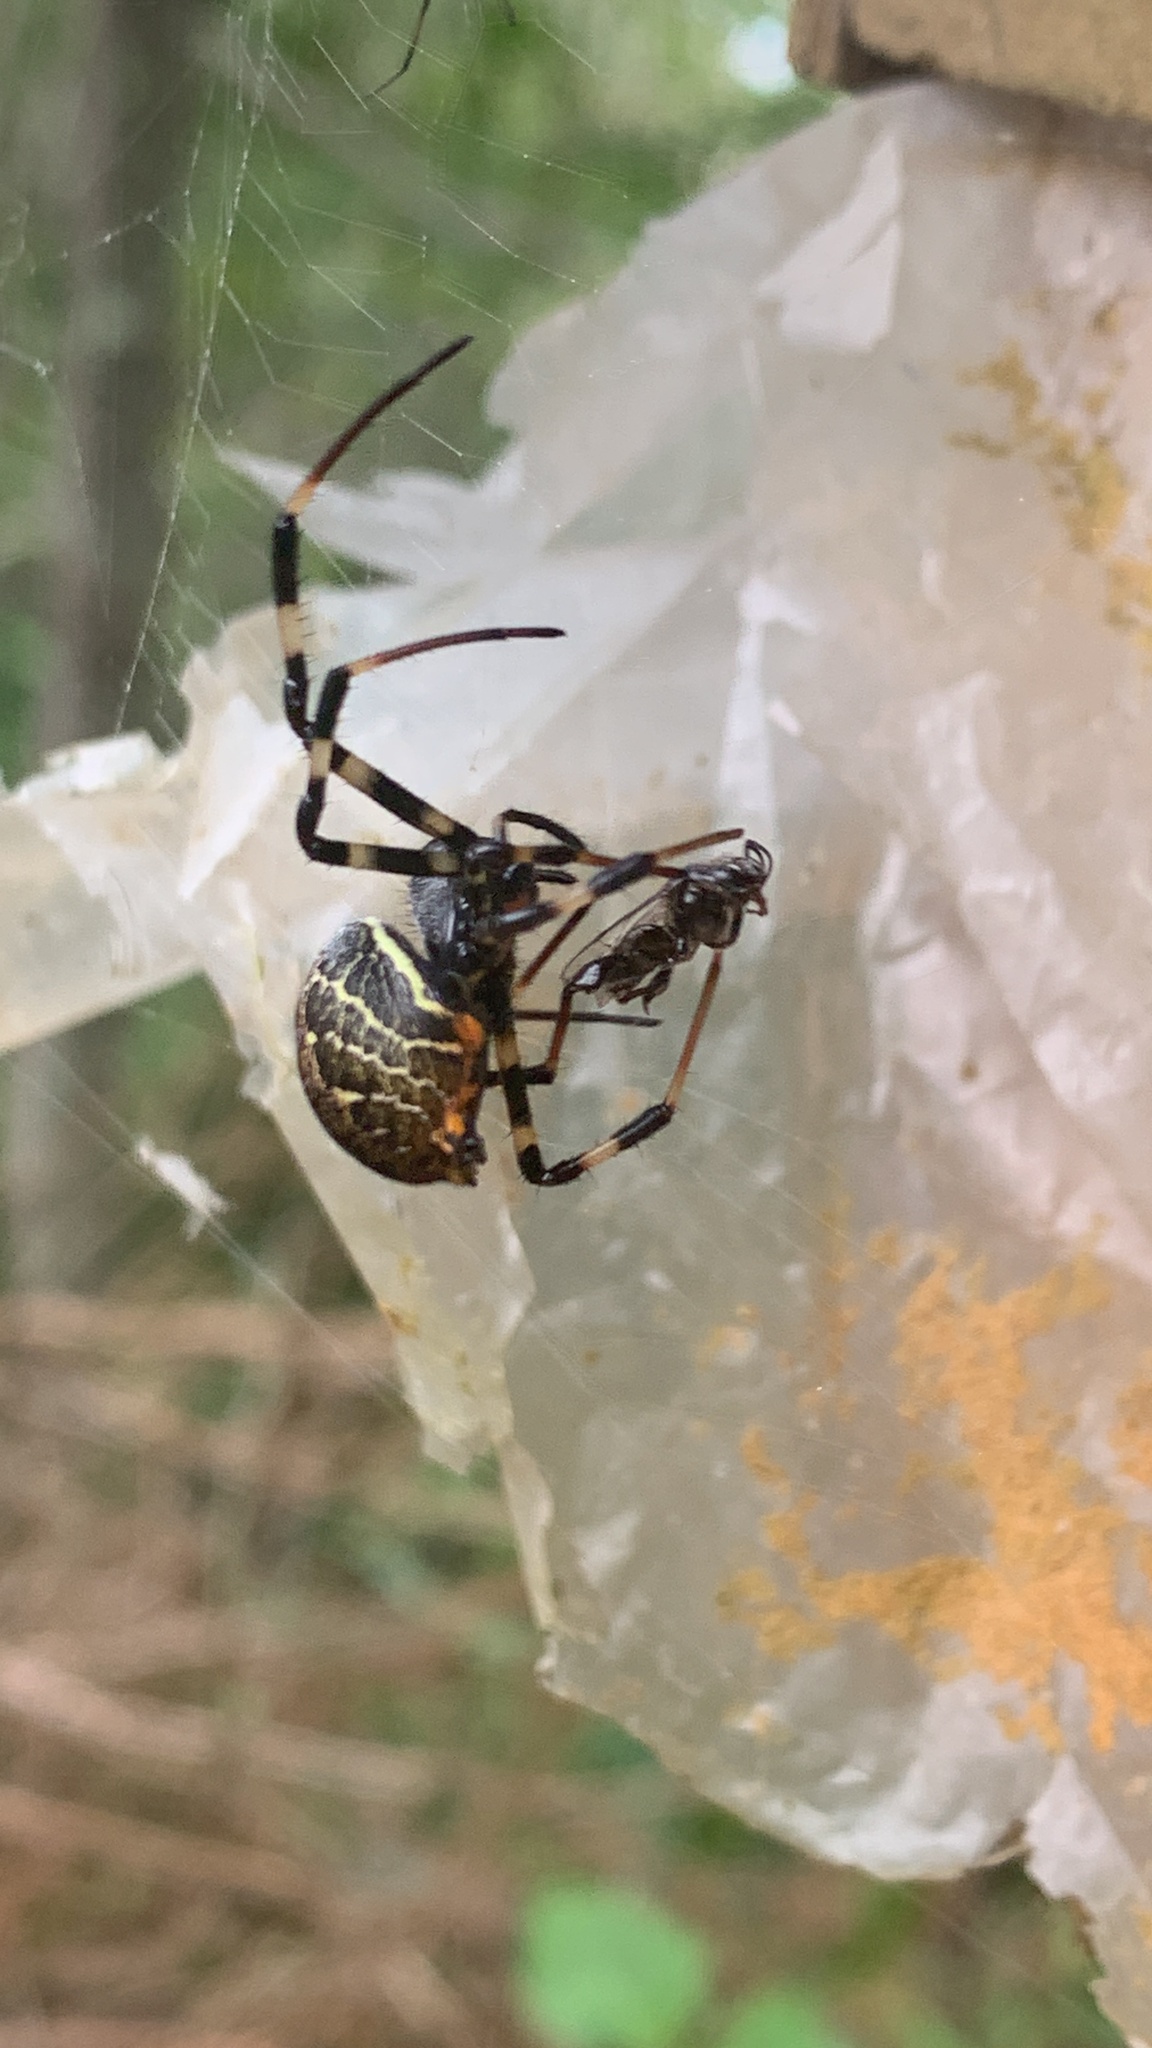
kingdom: Animalia
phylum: Arthropoda
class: Arachnida
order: Araneae
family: Araneidae
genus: Nephilengys
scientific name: Nephilengys malabarensis
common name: Asian hermit spider
